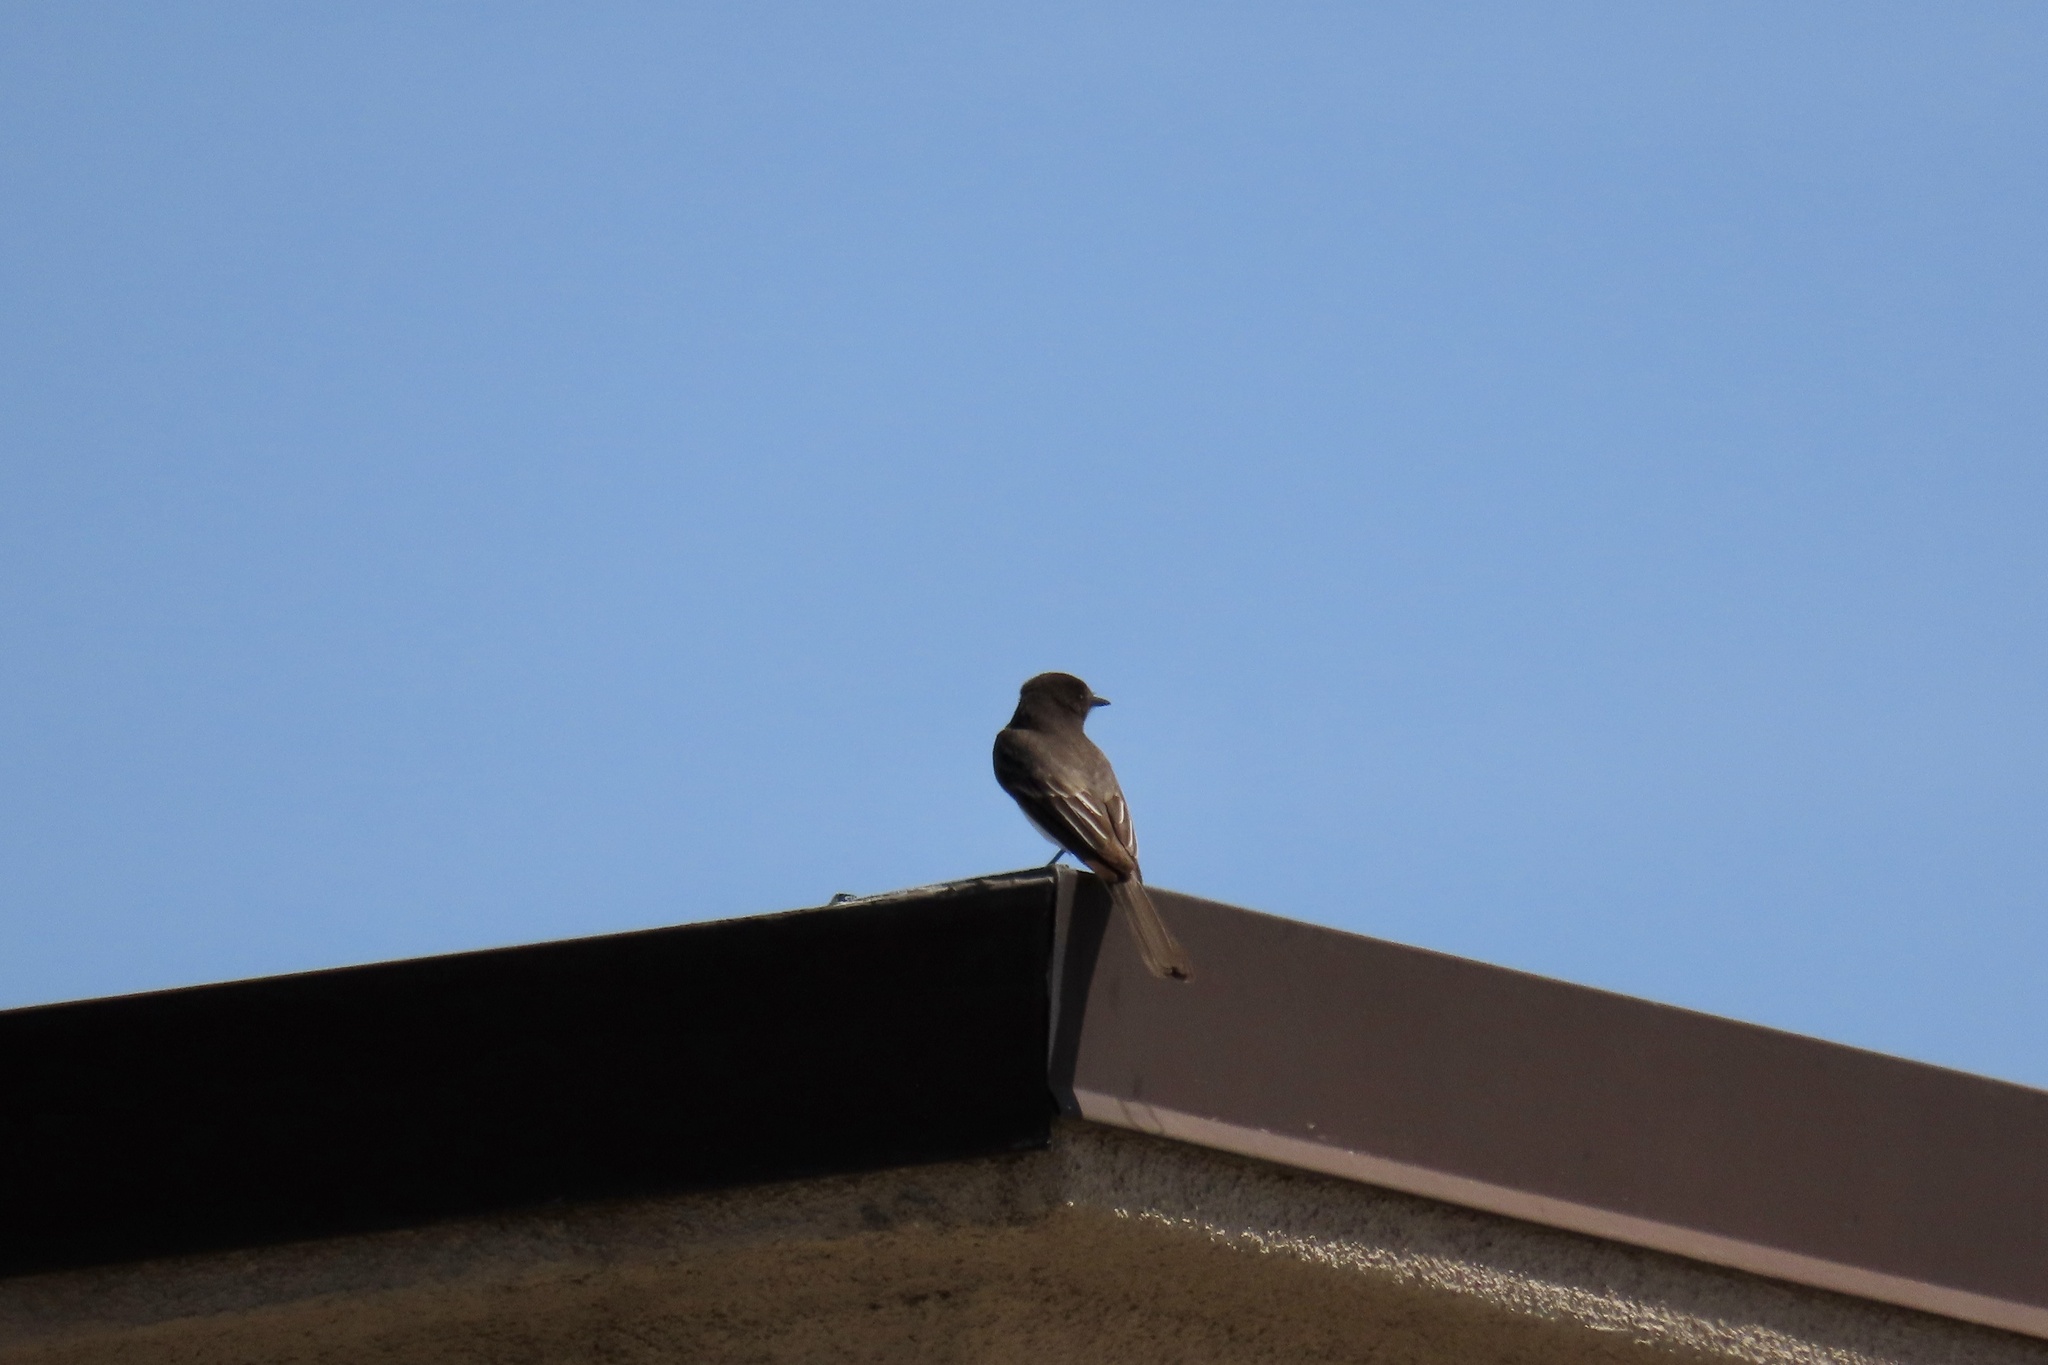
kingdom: Animalia
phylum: Chordata
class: Aves
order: Passeriformes
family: Tyrannidae
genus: Sayornis
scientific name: Sayornis nigricans
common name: Black phoebe
